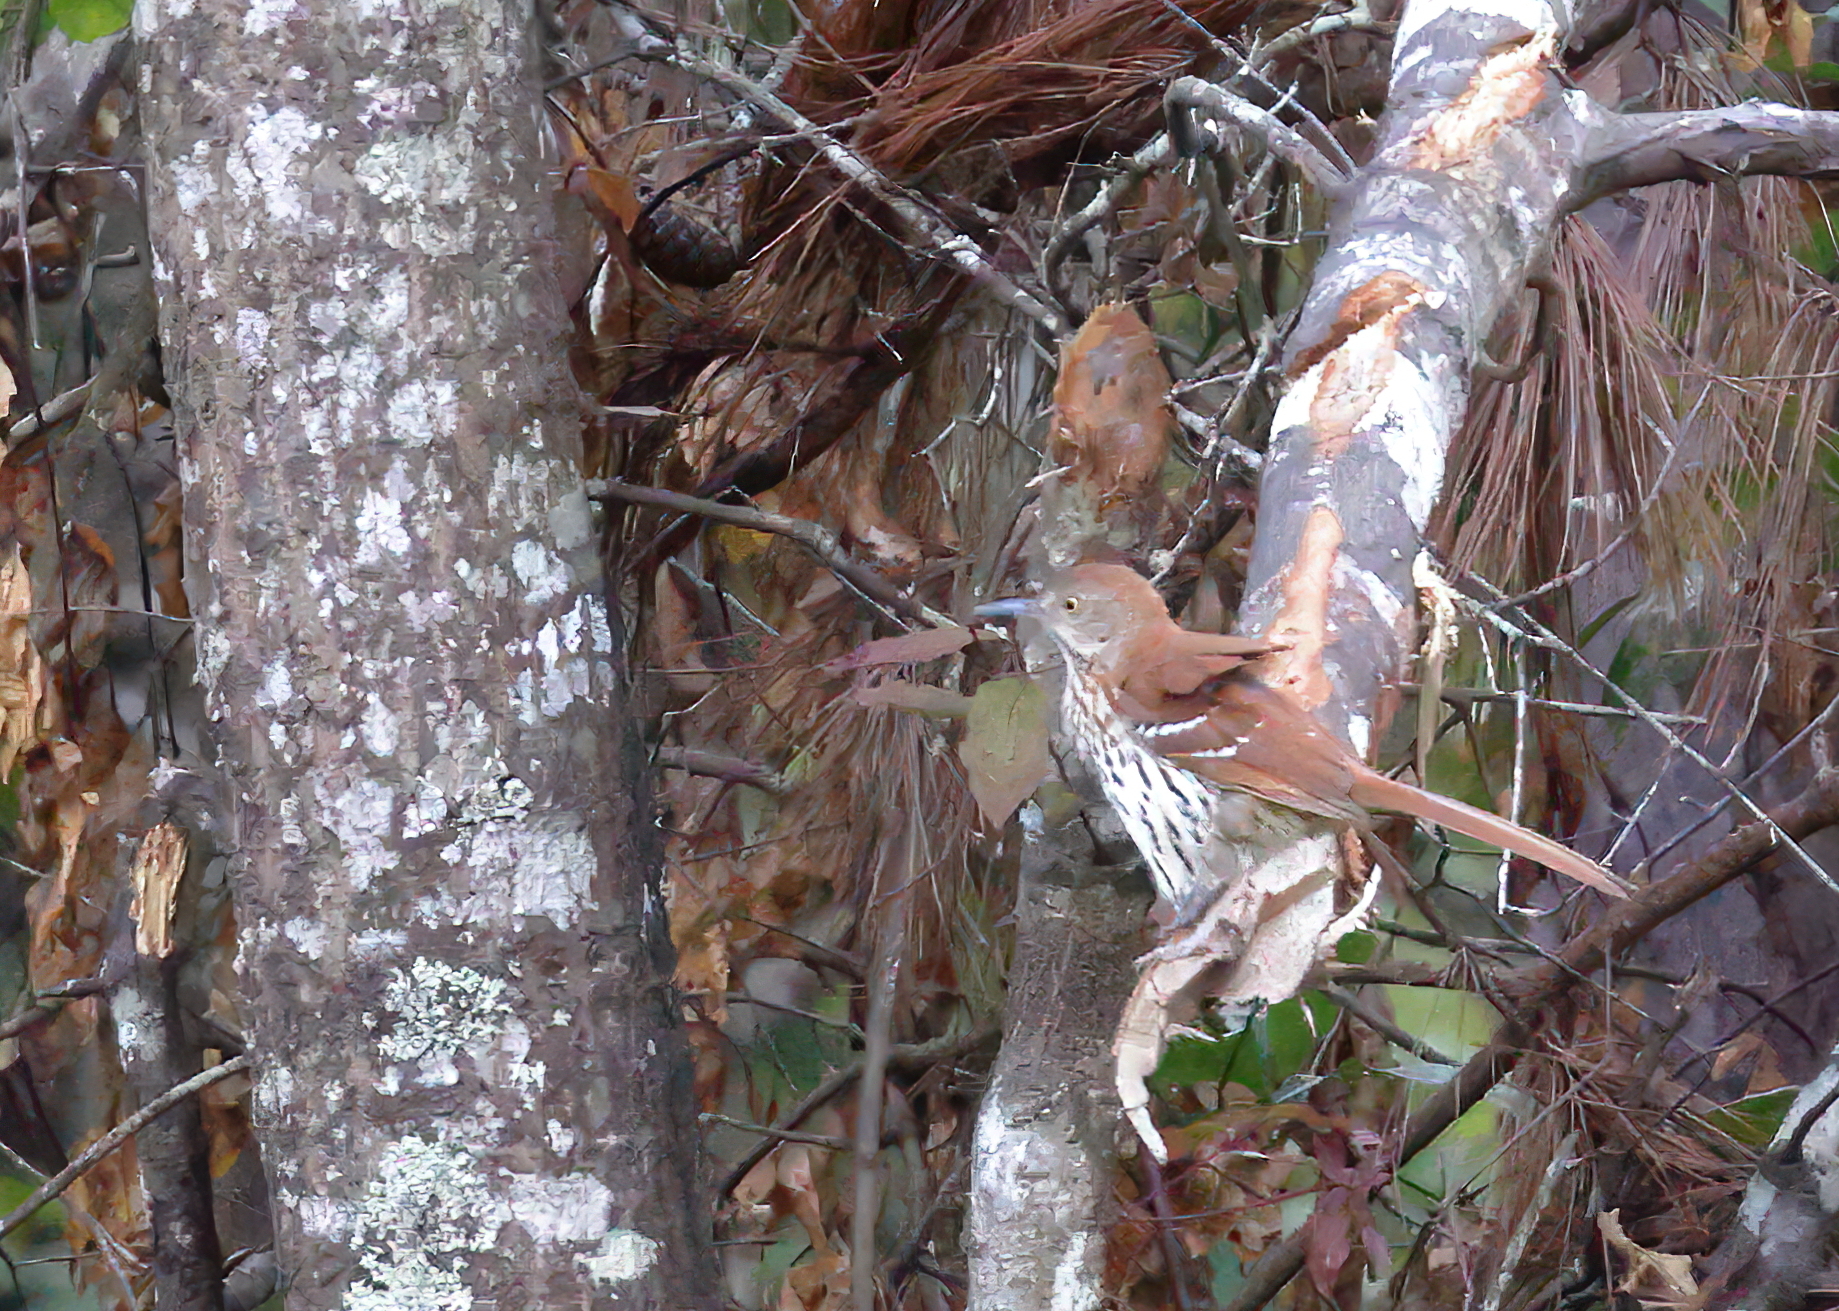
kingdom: Animalia
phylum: Chordata
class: Aves
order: Passeriformes
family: Mimidae
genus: Toxostoma
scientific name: Toxostoma rufum
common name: Brown thrasher
